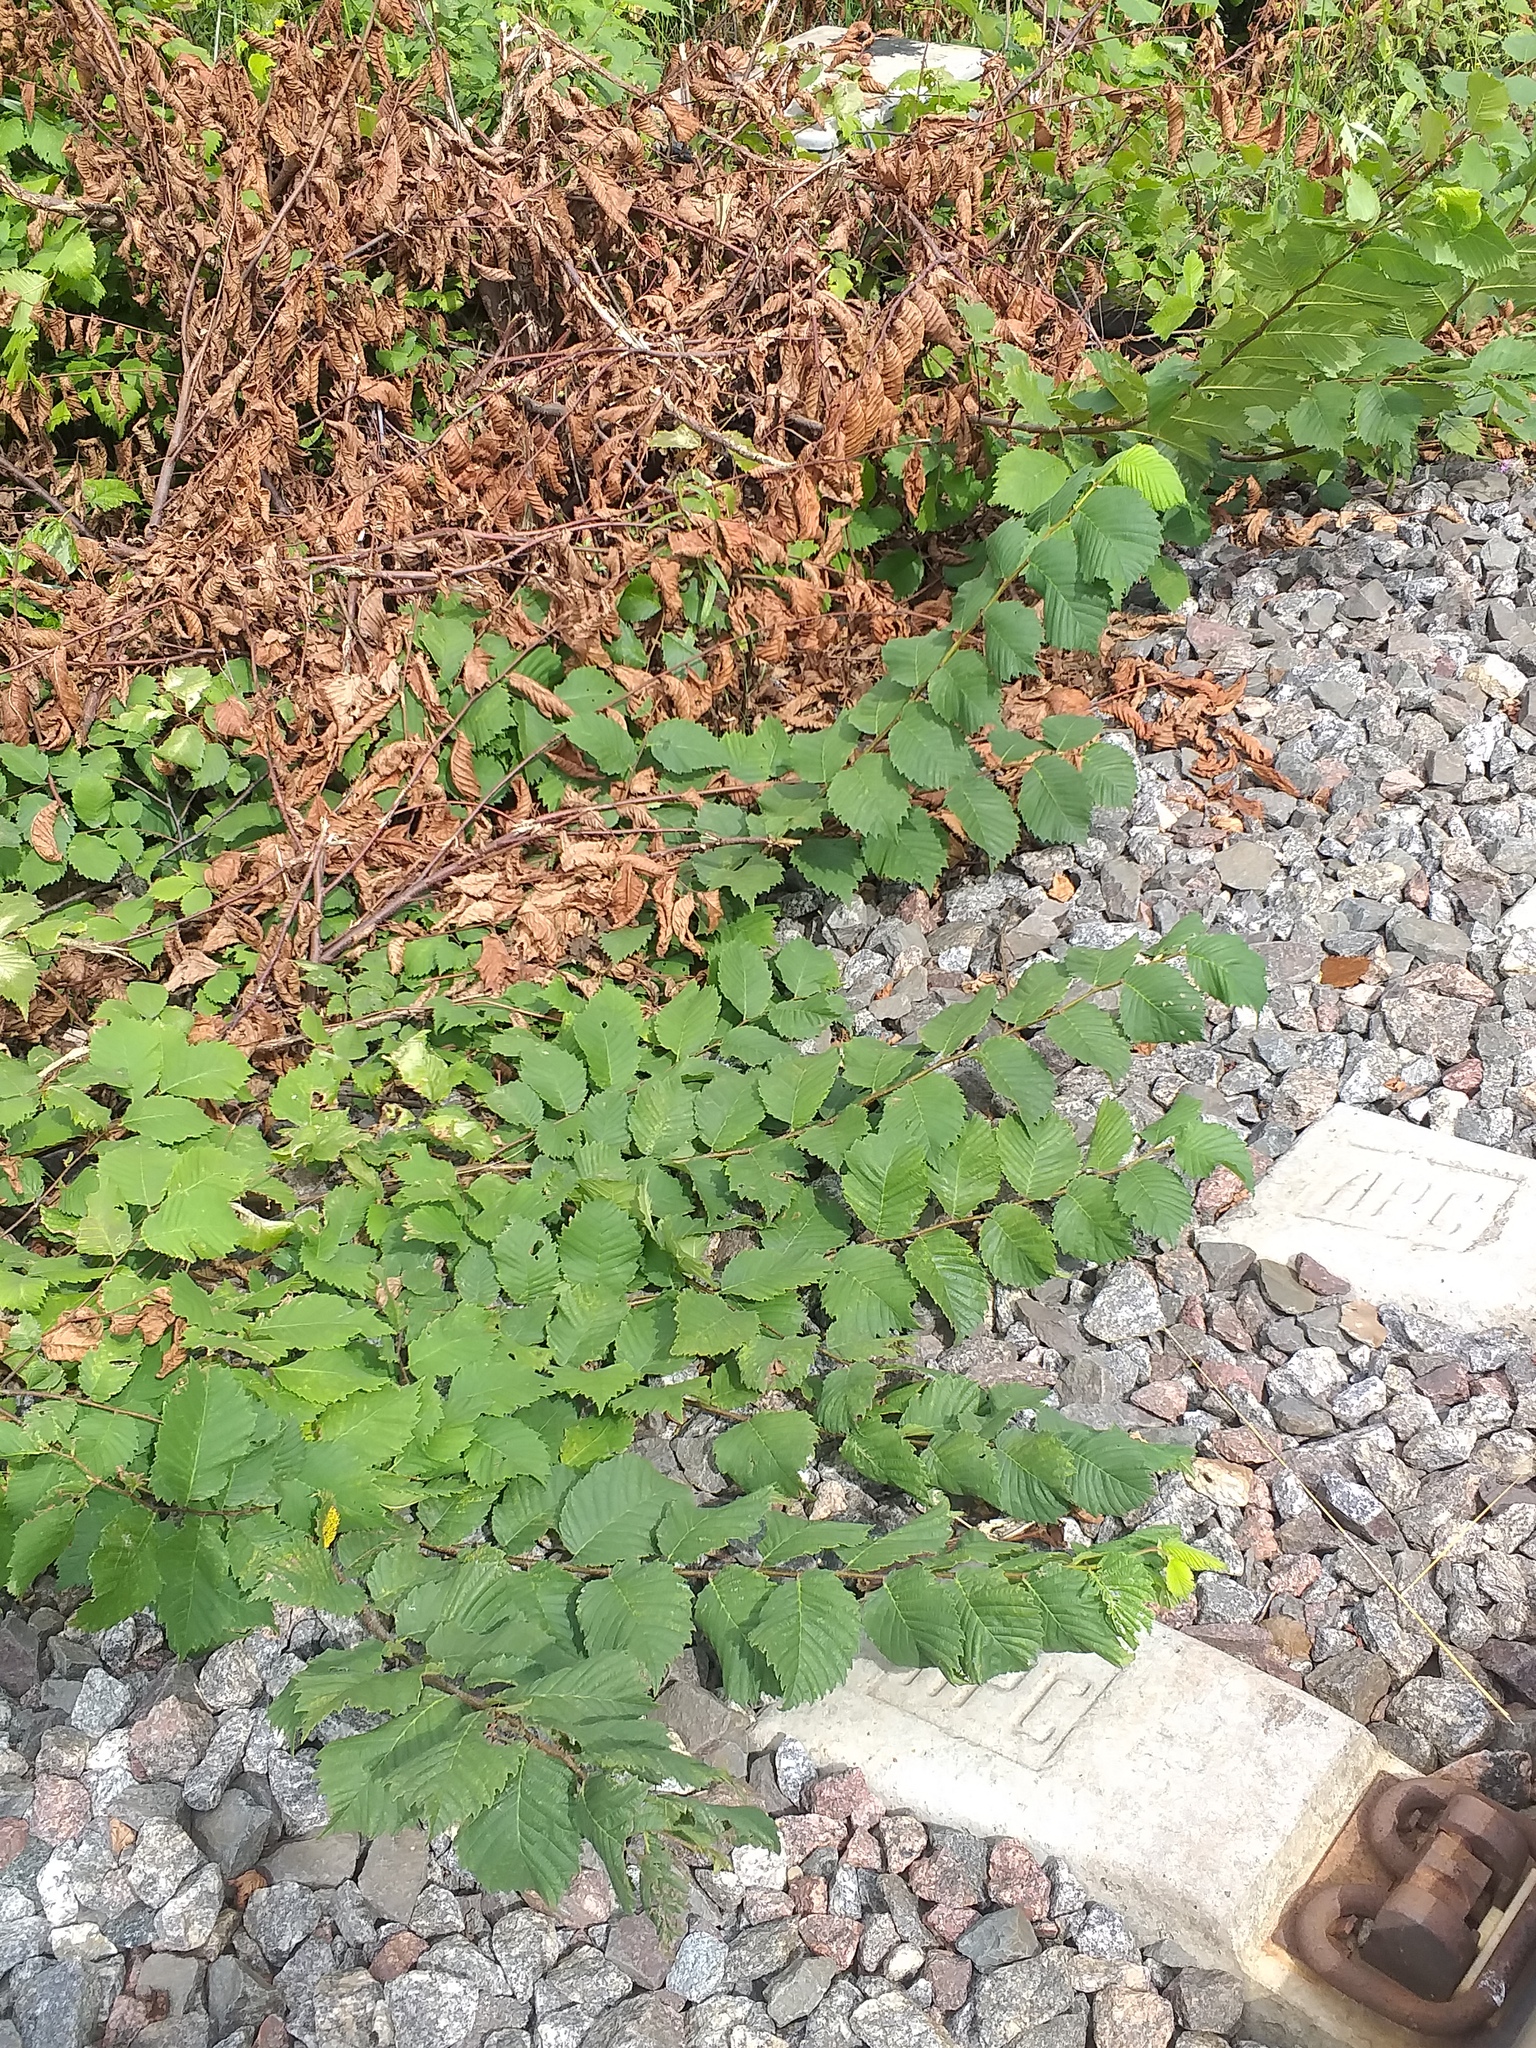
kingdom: Plantae
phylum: Tracheophyta
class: Magnoliopsida
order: Rosales
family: Ulmaceae
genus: Ulmus
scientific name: Ulmus laevis
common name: European white-elm
